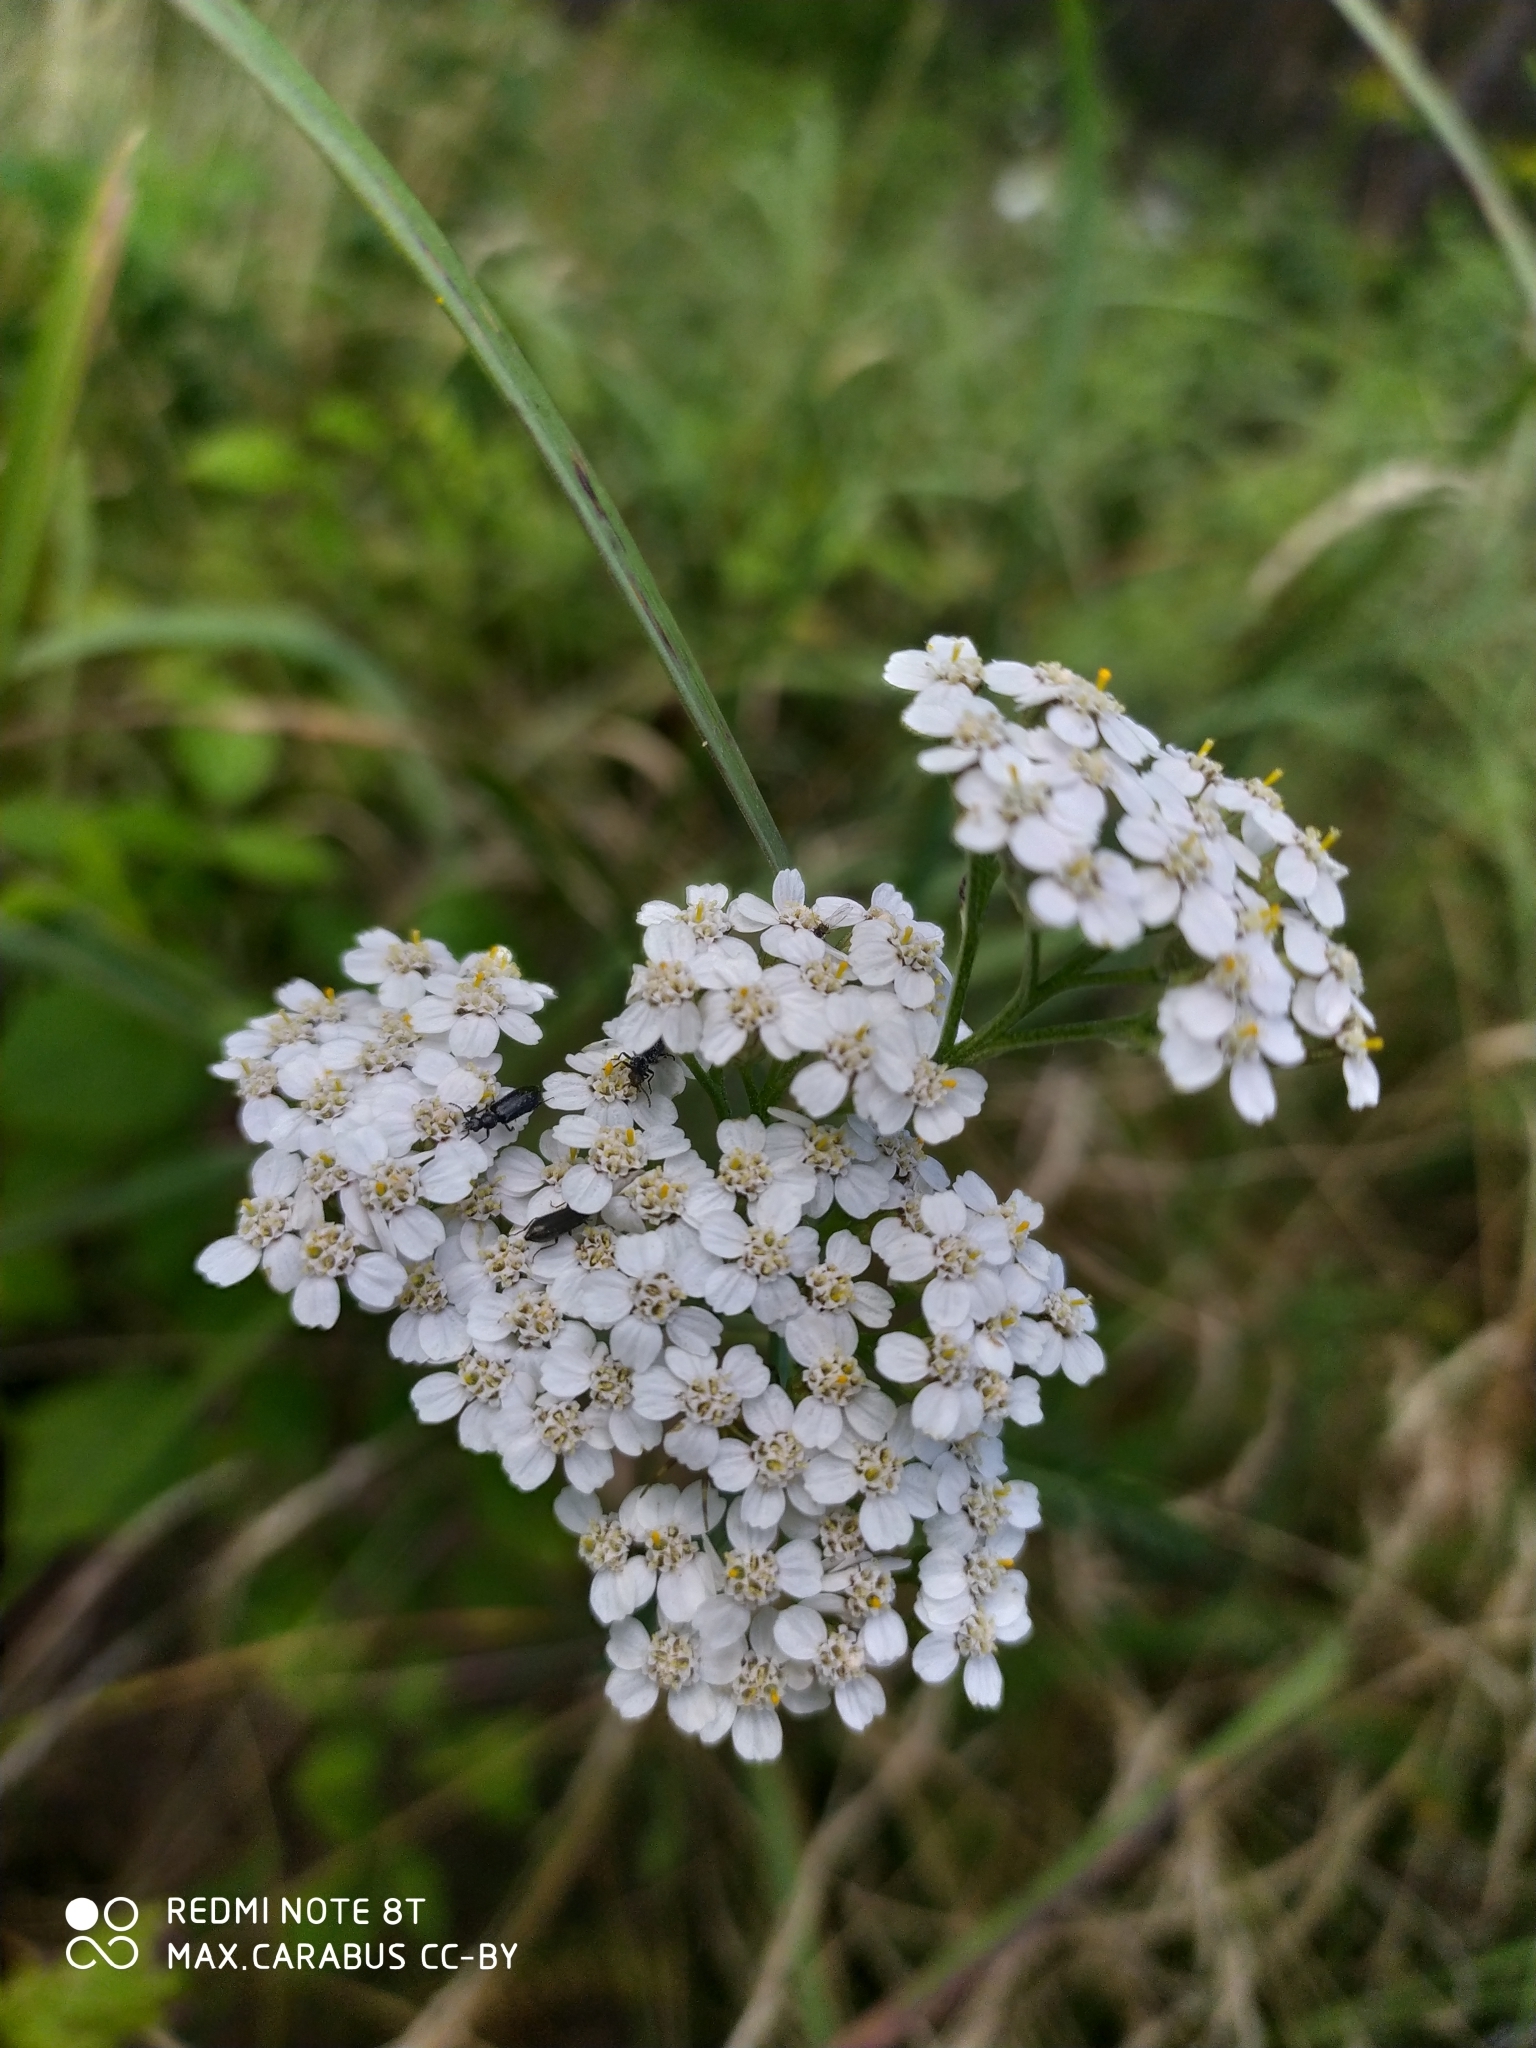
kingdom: Plantae
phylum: Tracheophyta
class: Magnoliopsida
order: Asterales
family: Asteraceae
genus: Achillea
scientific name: Achillea millefolium
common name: Yarrow
